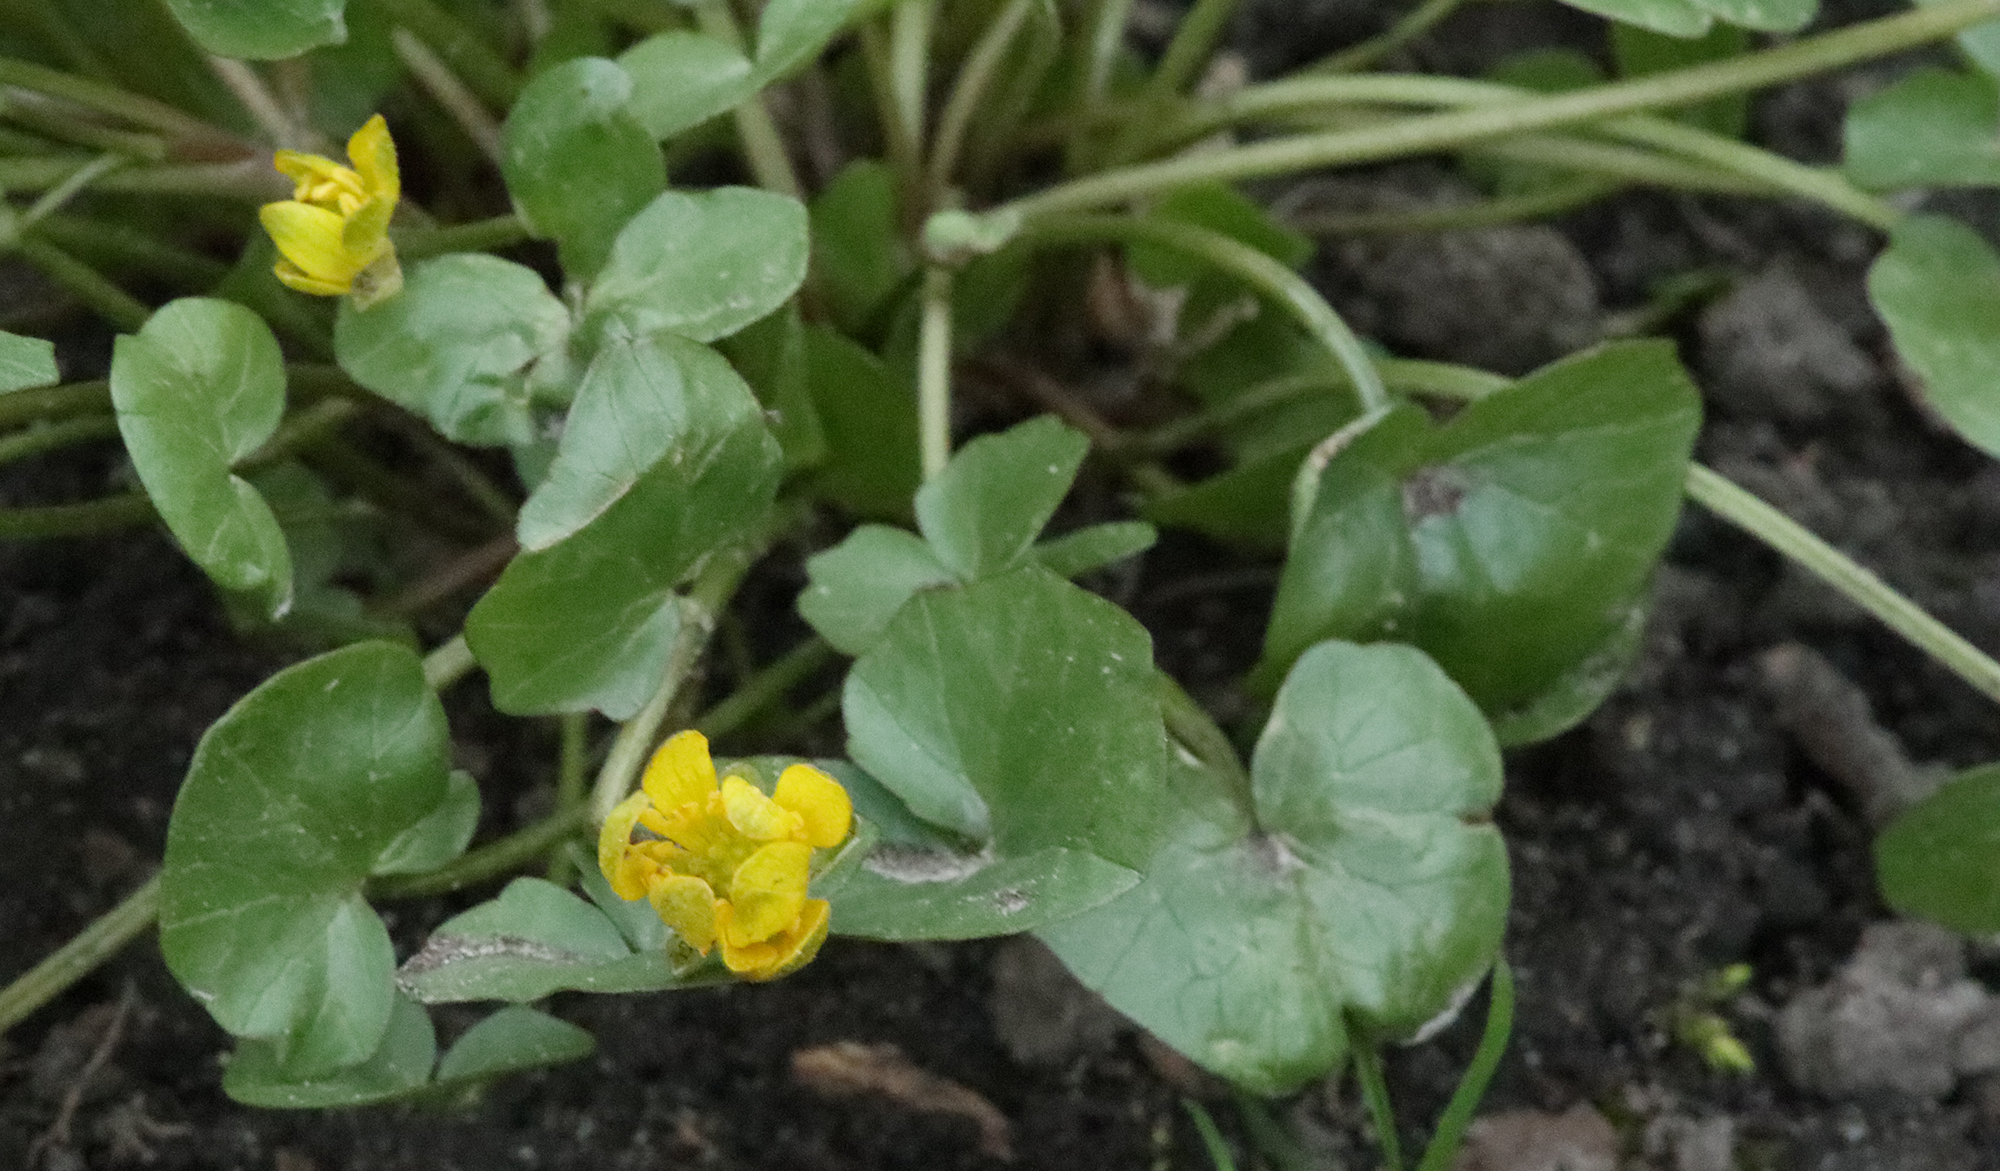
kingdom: Plantae
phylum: Tracheophyta
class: Magnoliopsida
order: Ranunculales
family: Ranunculaceae
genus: Ficaria
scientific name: Ficaria verna
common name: Lesser celandine
